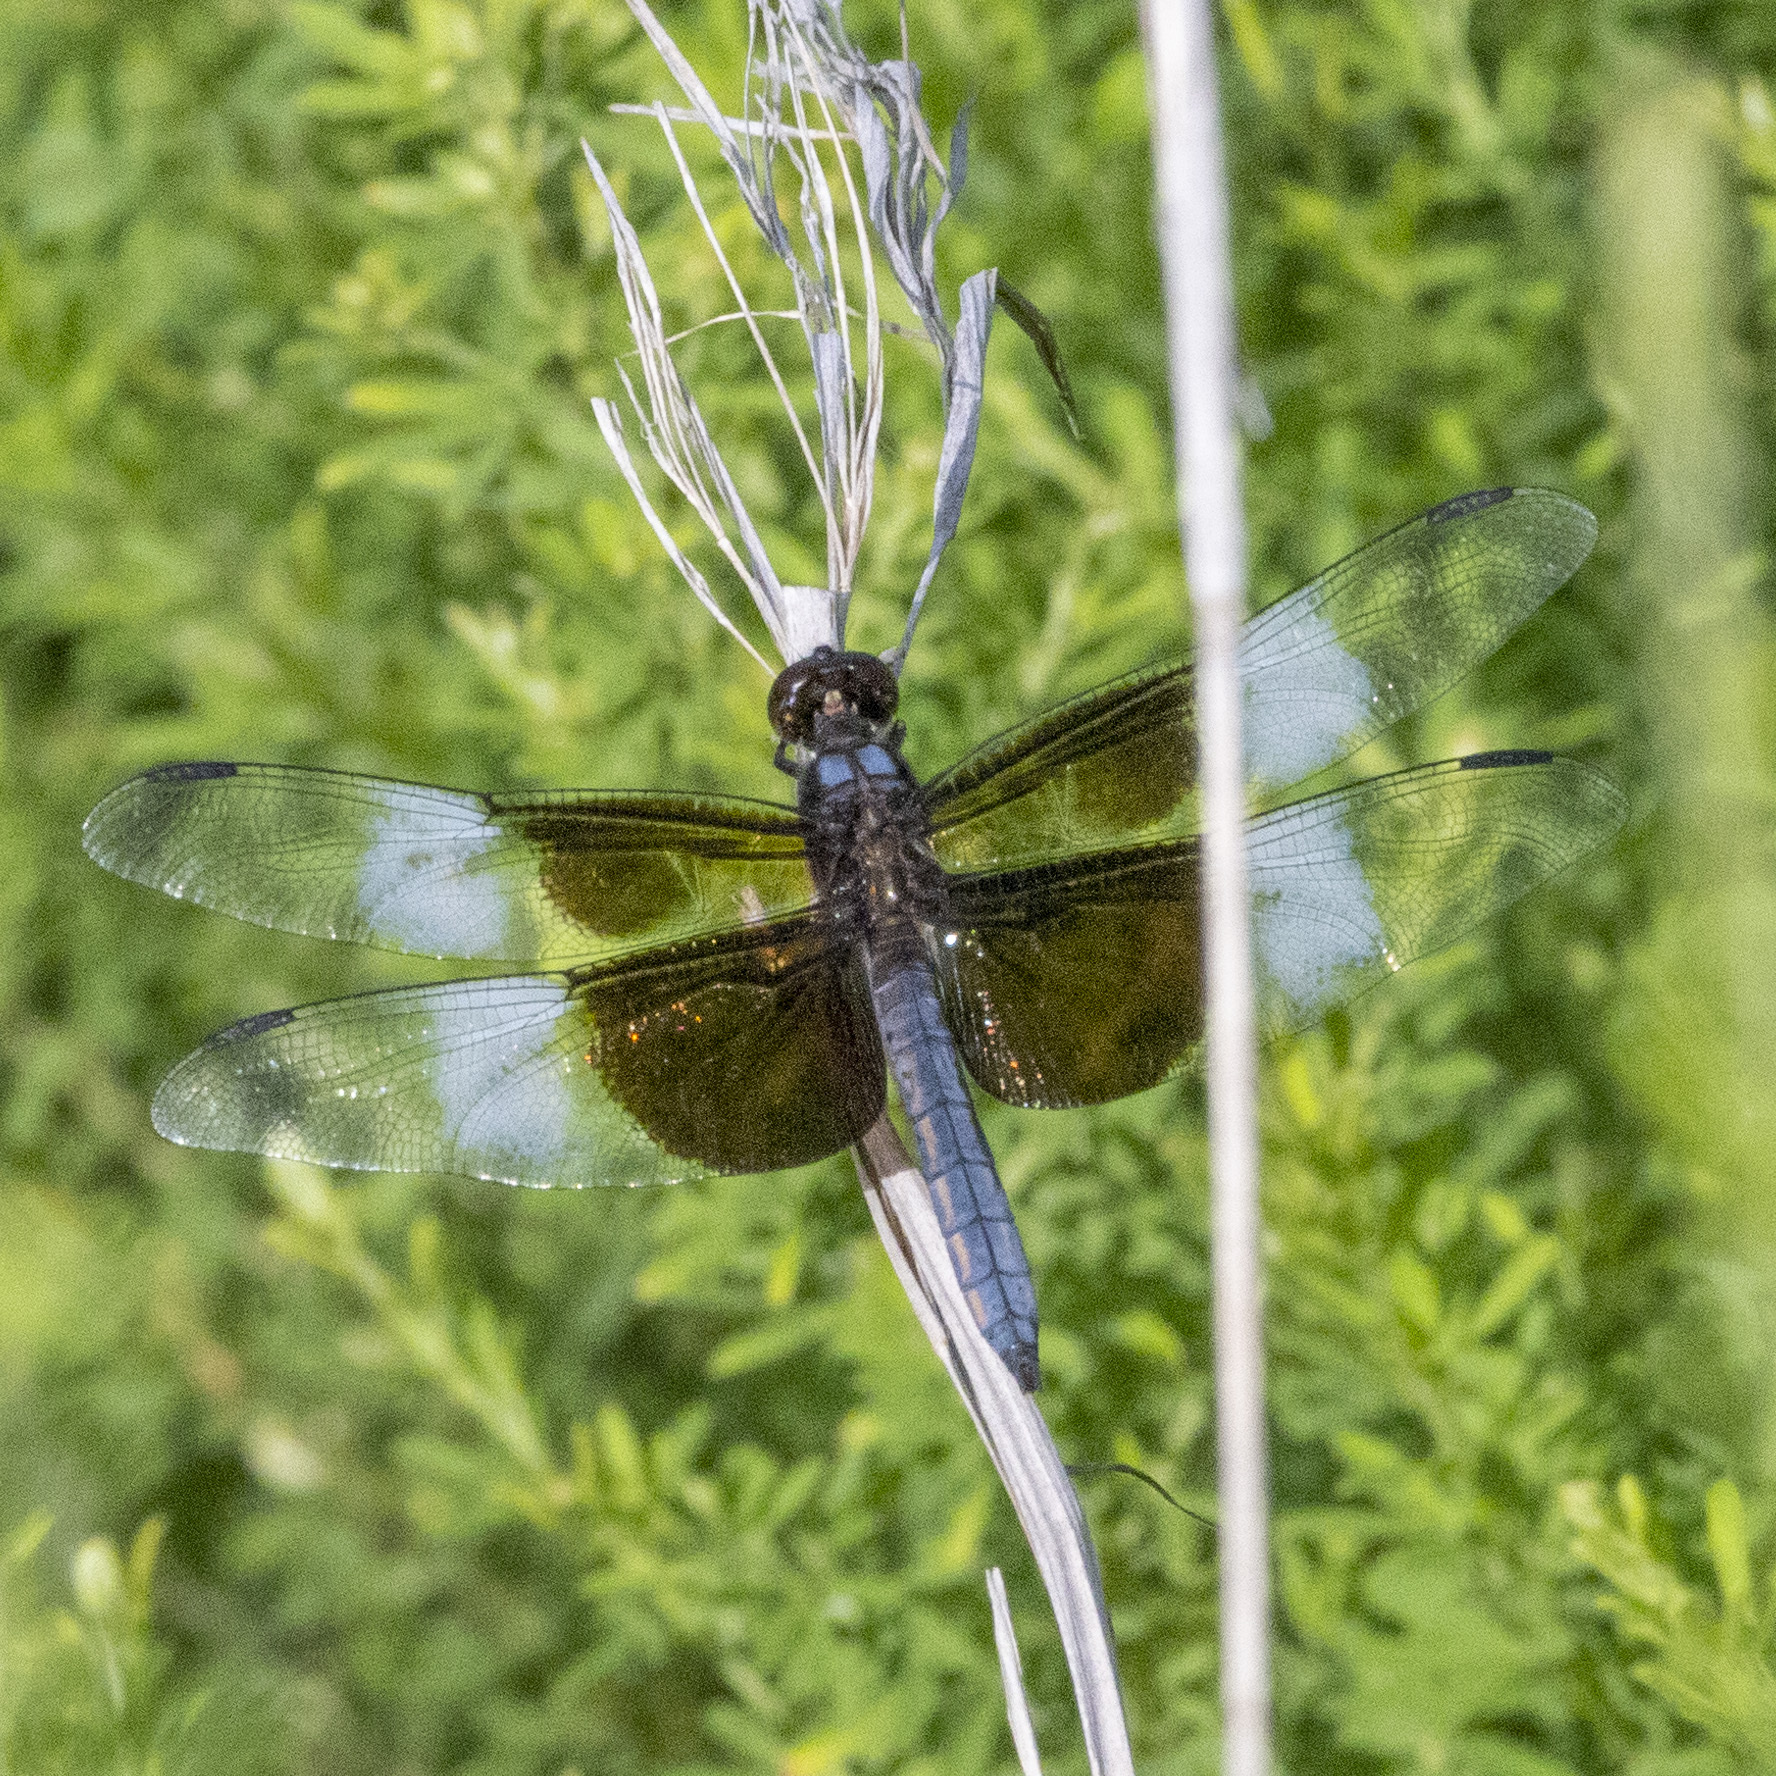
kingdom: Animalia
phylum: Arthropoda
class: Insecta
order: Odonata
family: Libellulidae
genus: Libellula
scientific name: Libellula luctuosa
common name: Widow skimmer
